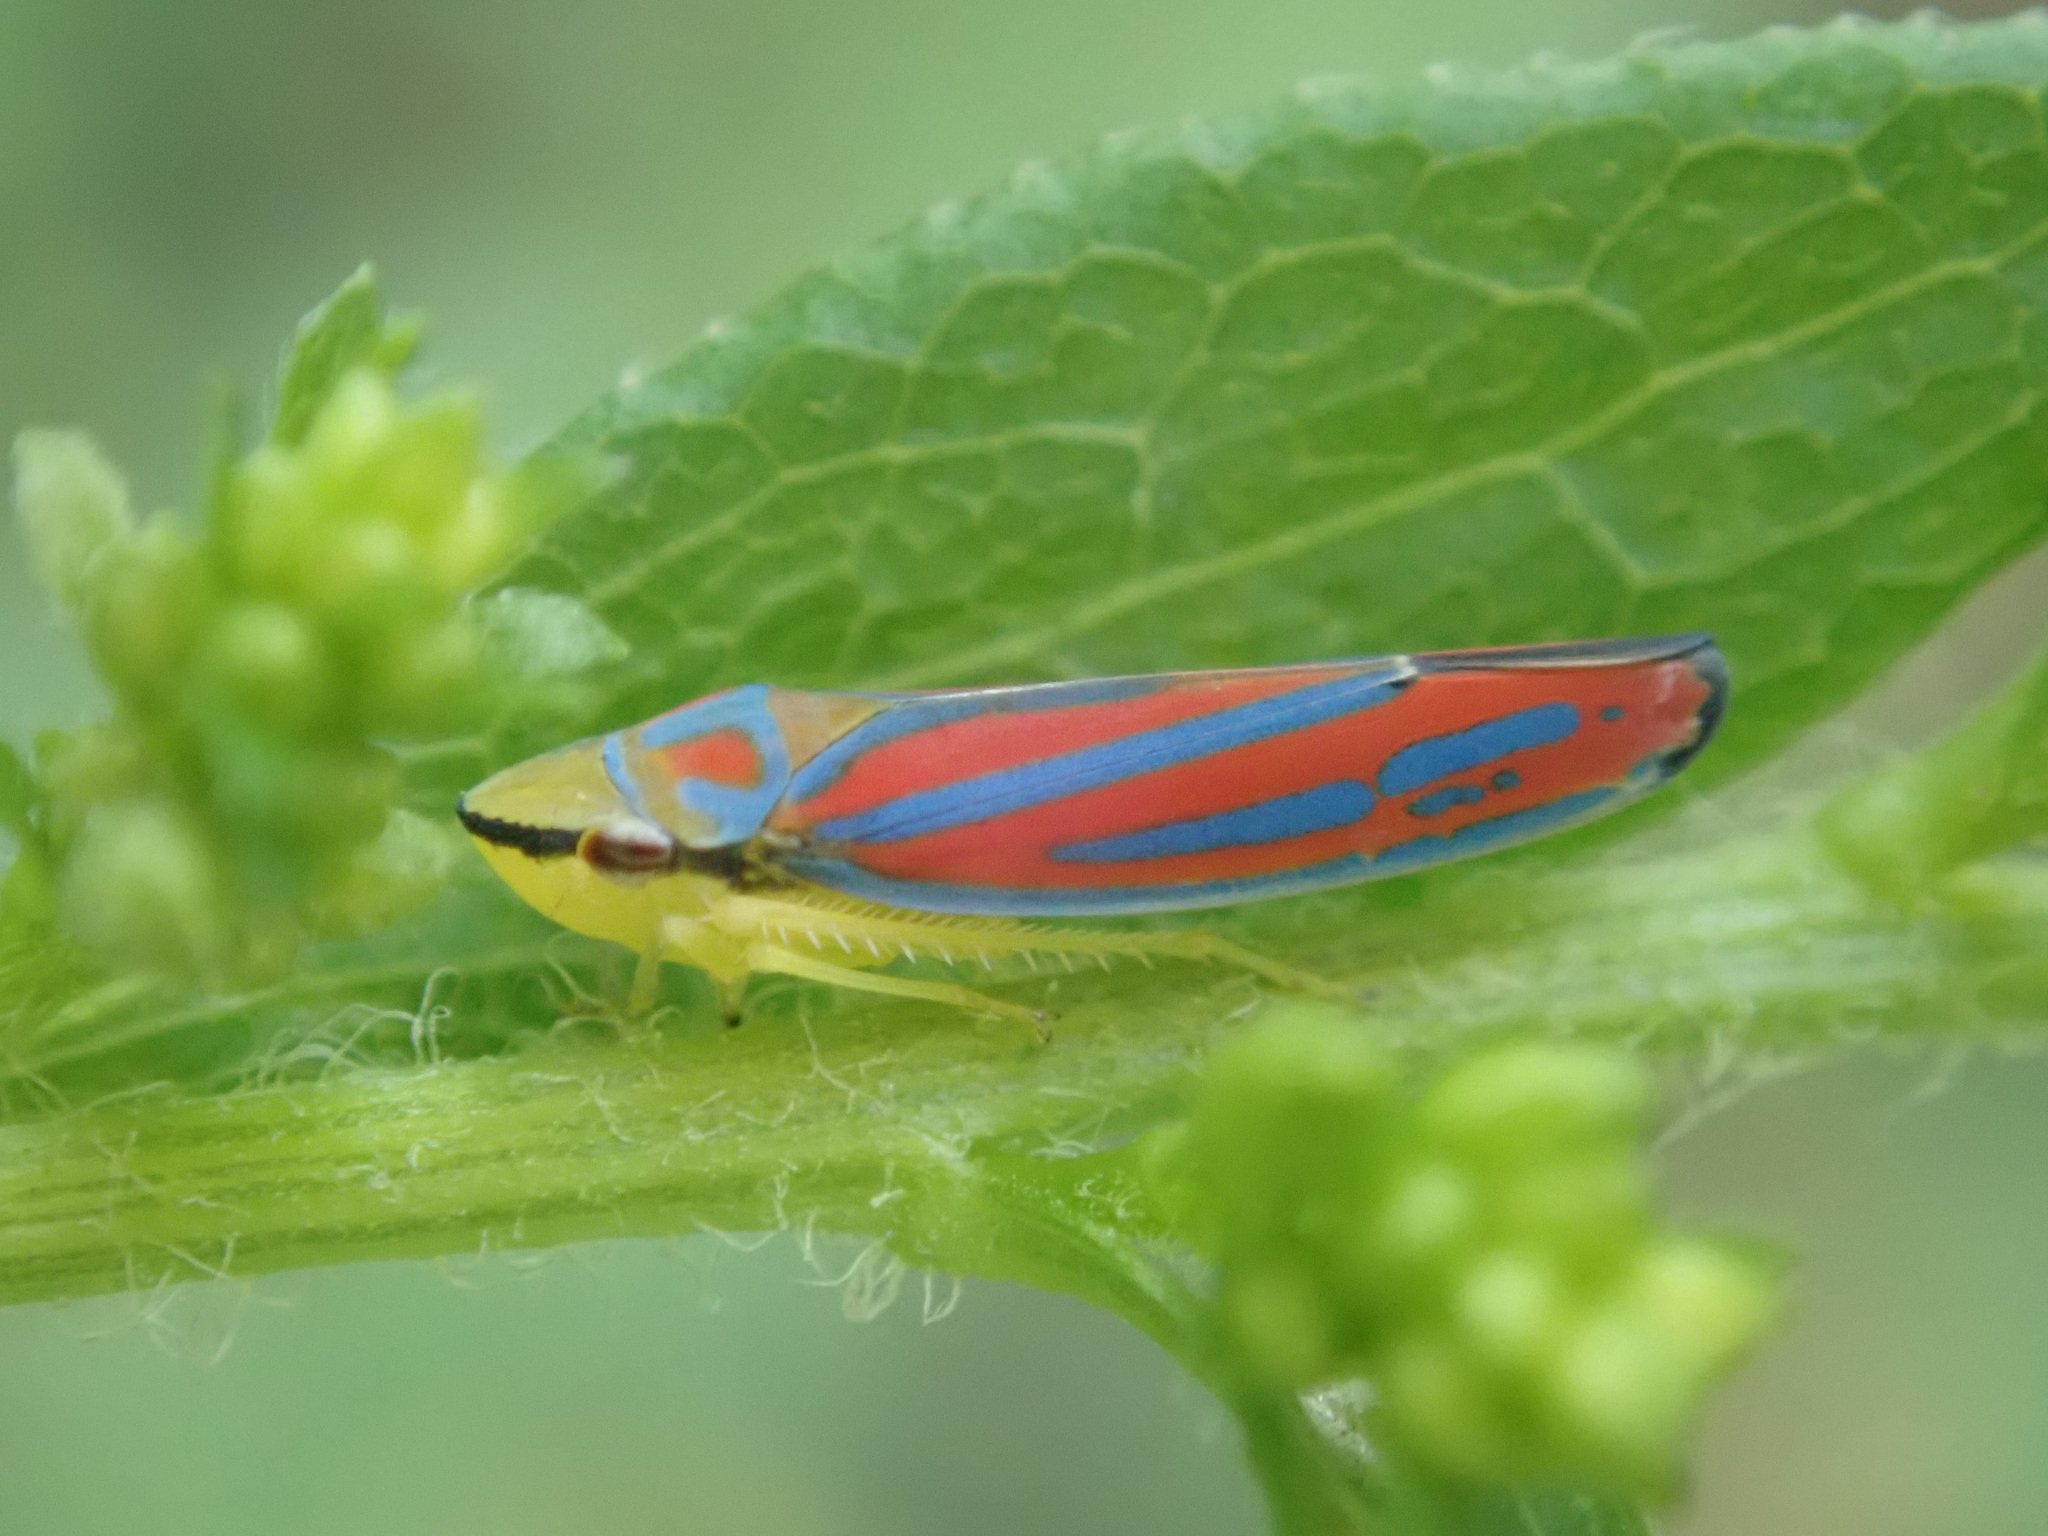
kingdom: Animalia
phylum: Arthropoda
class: Insecta
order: Hemiptera
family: Cicadellidae
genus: Graphocephala
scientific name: Graphocephala coccinea
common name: Candy-striped leafhopper
